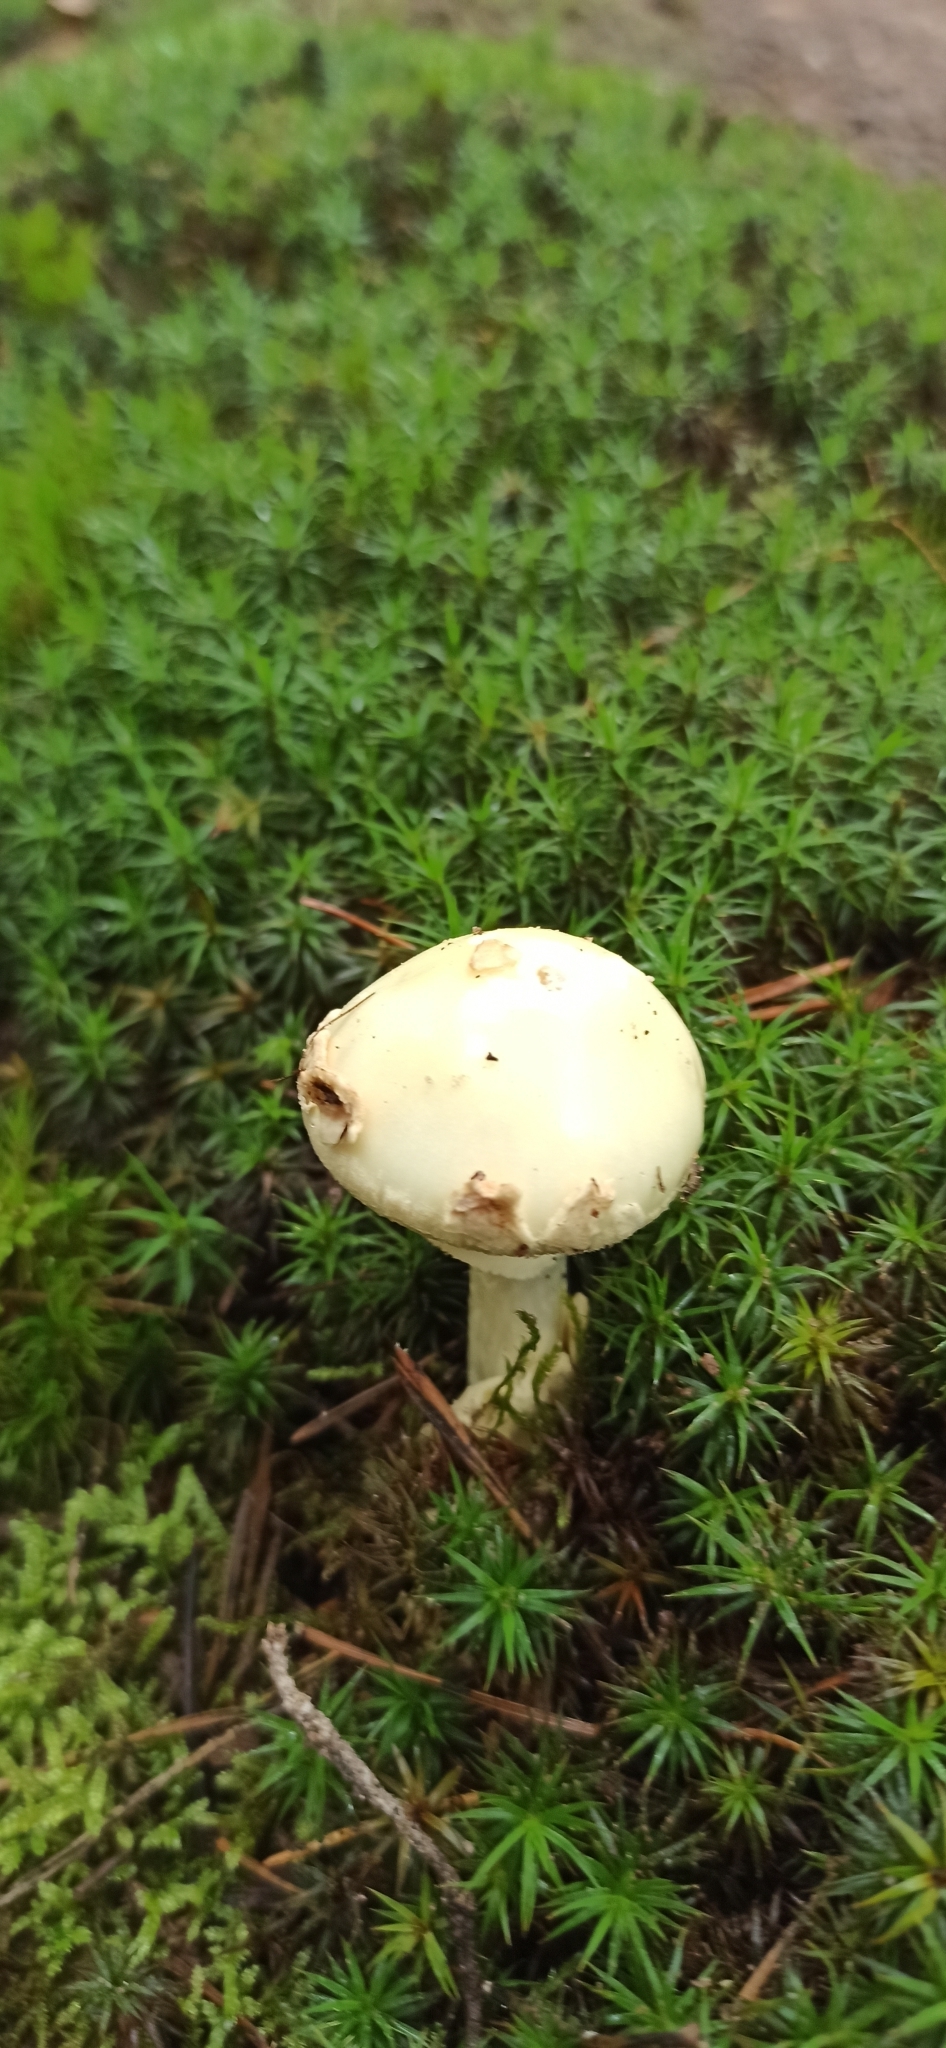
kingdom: Fungi
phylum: Basidiomycota
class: Agaricomycetes
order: Agaricales
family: Amanitaceae
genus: Amanita
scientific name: Amanita citrina
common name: False death-cap
